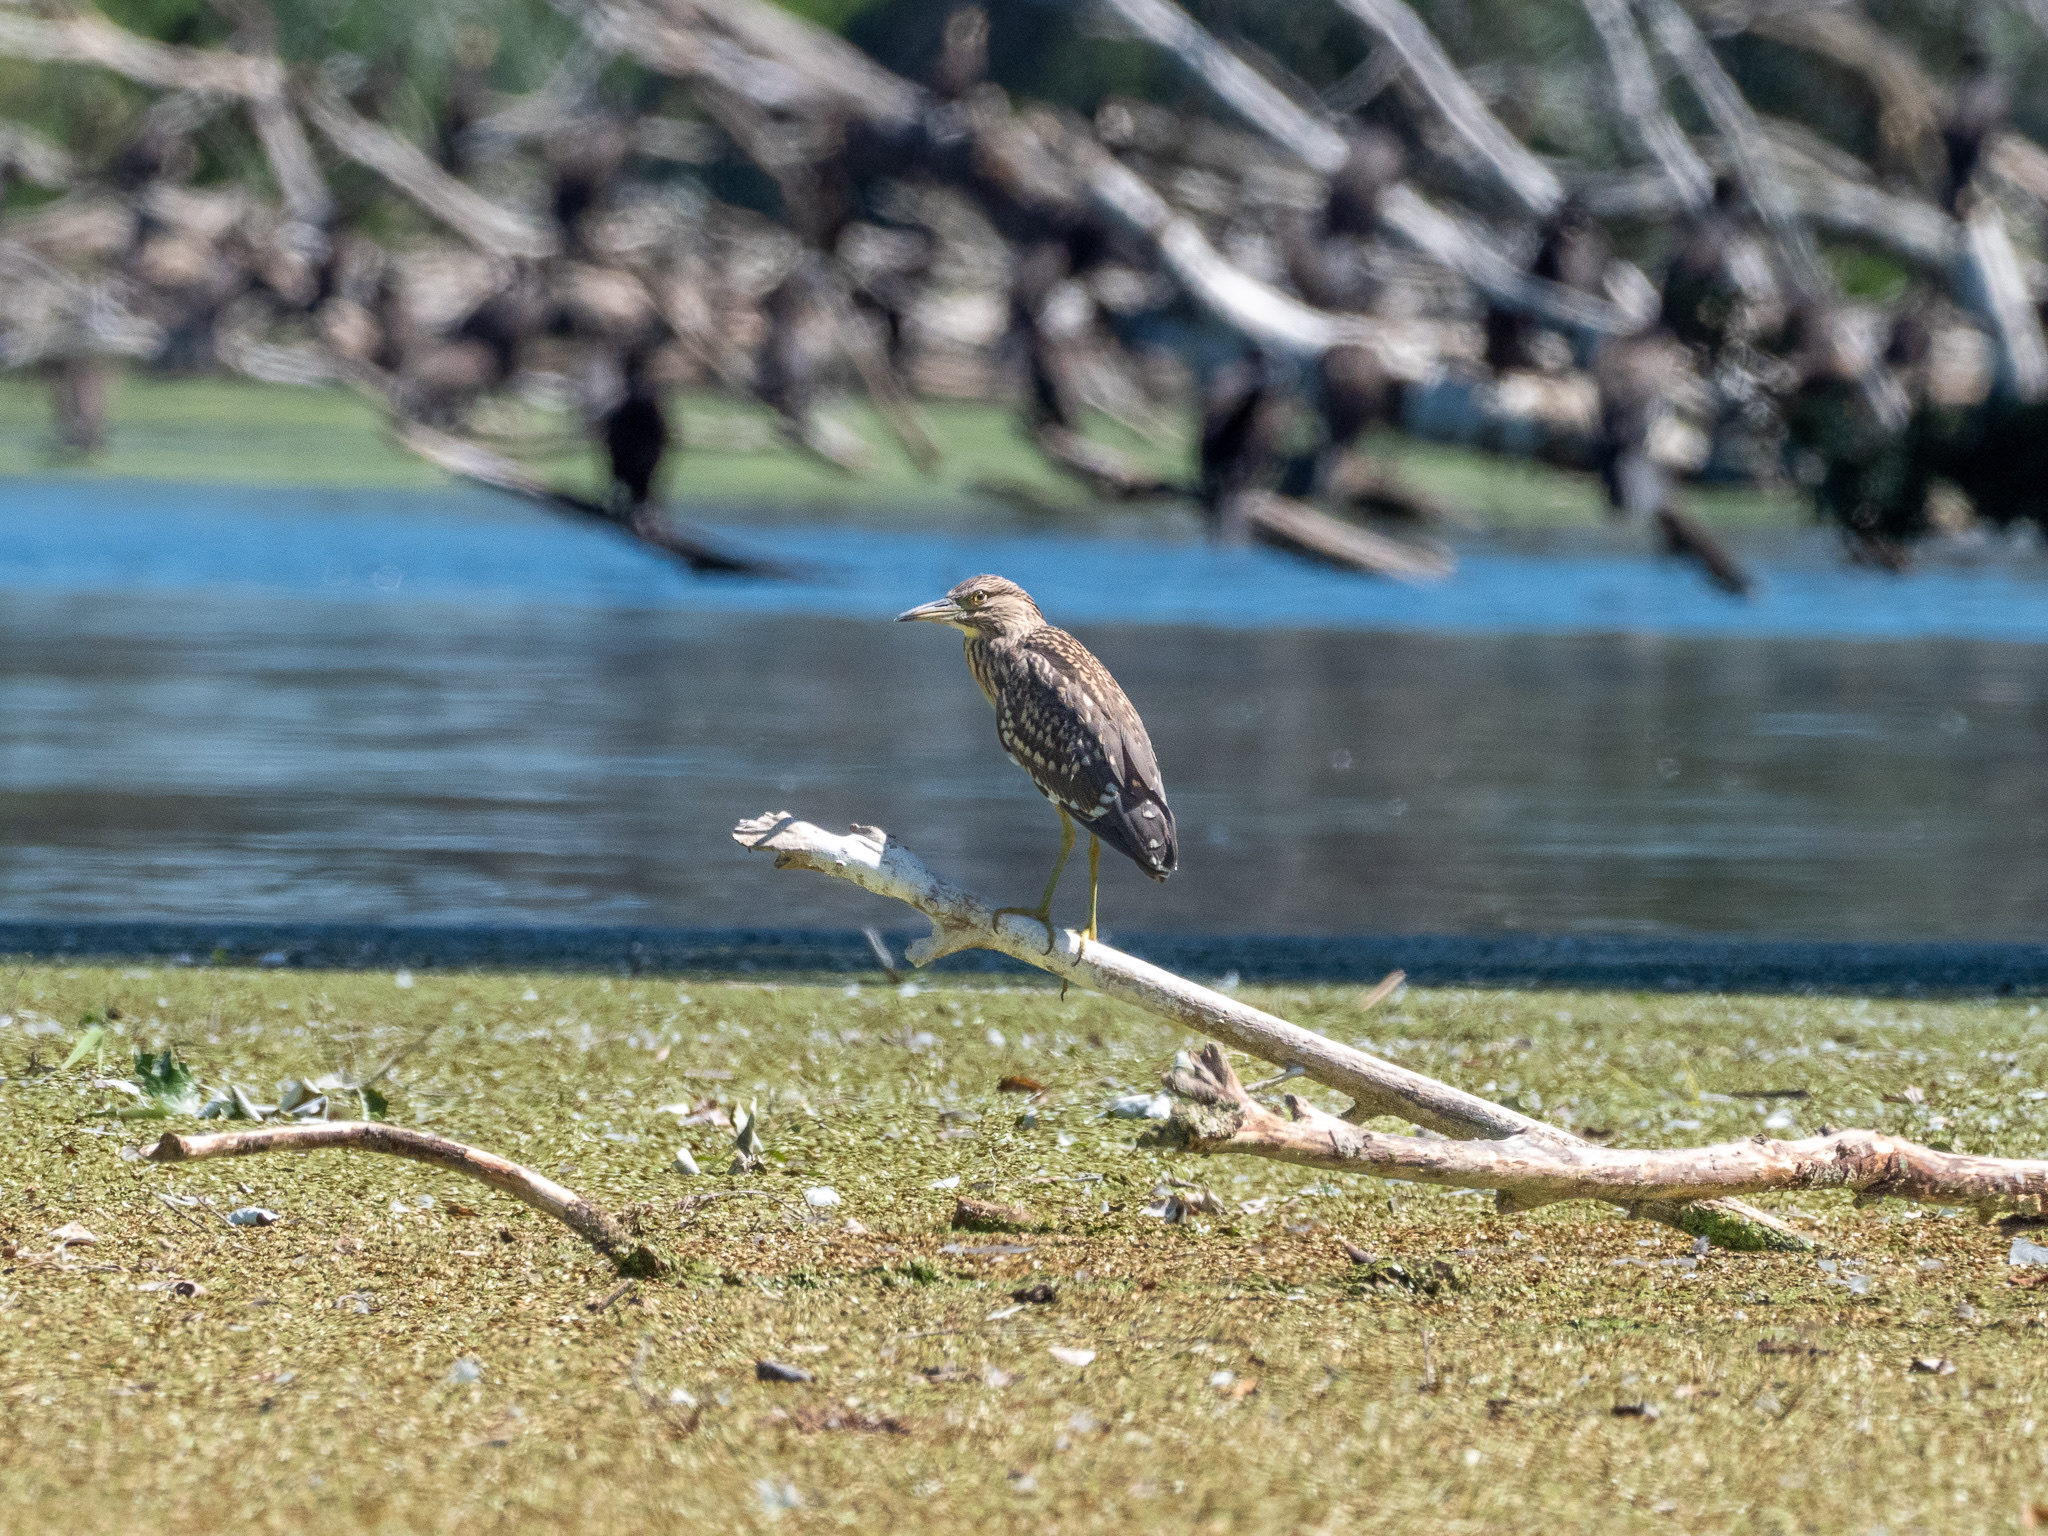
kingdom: Animalia
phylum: Chordata
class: Aves
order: Pelecaniformes
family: Ardeidae
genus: Nycticorax
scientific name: Nycticorax nycticorax
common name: Black-crowned night heron
